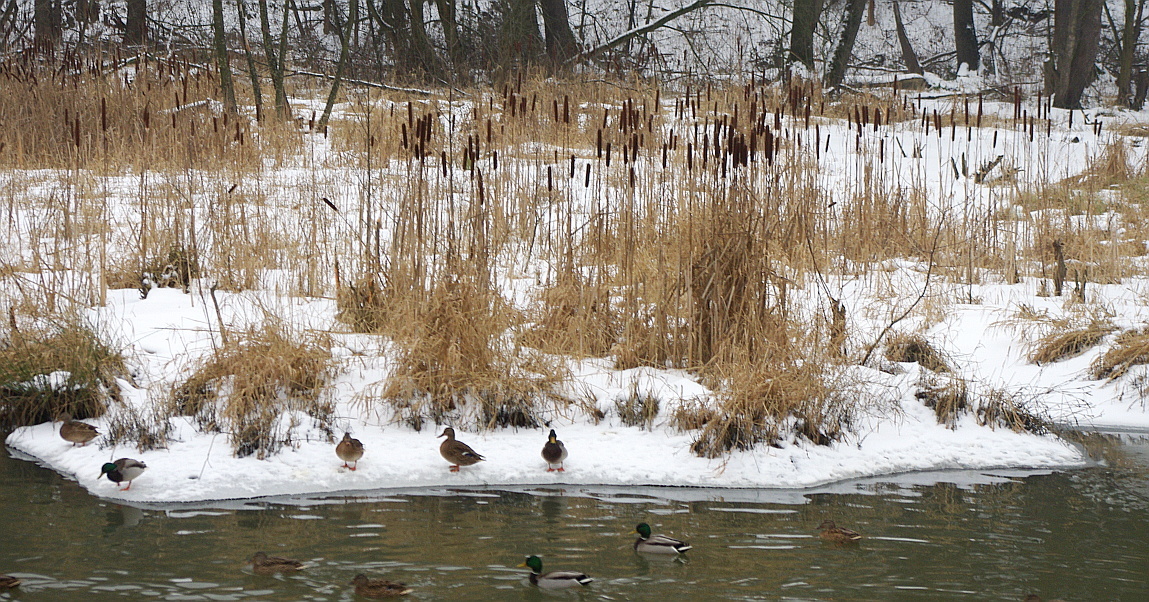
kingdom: Plantae
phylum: Tracheophyta
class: Liliopsida
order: Poales
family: Typhaceae
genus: Typha
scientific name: Typha latifolia
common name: Broadleaf cattail
